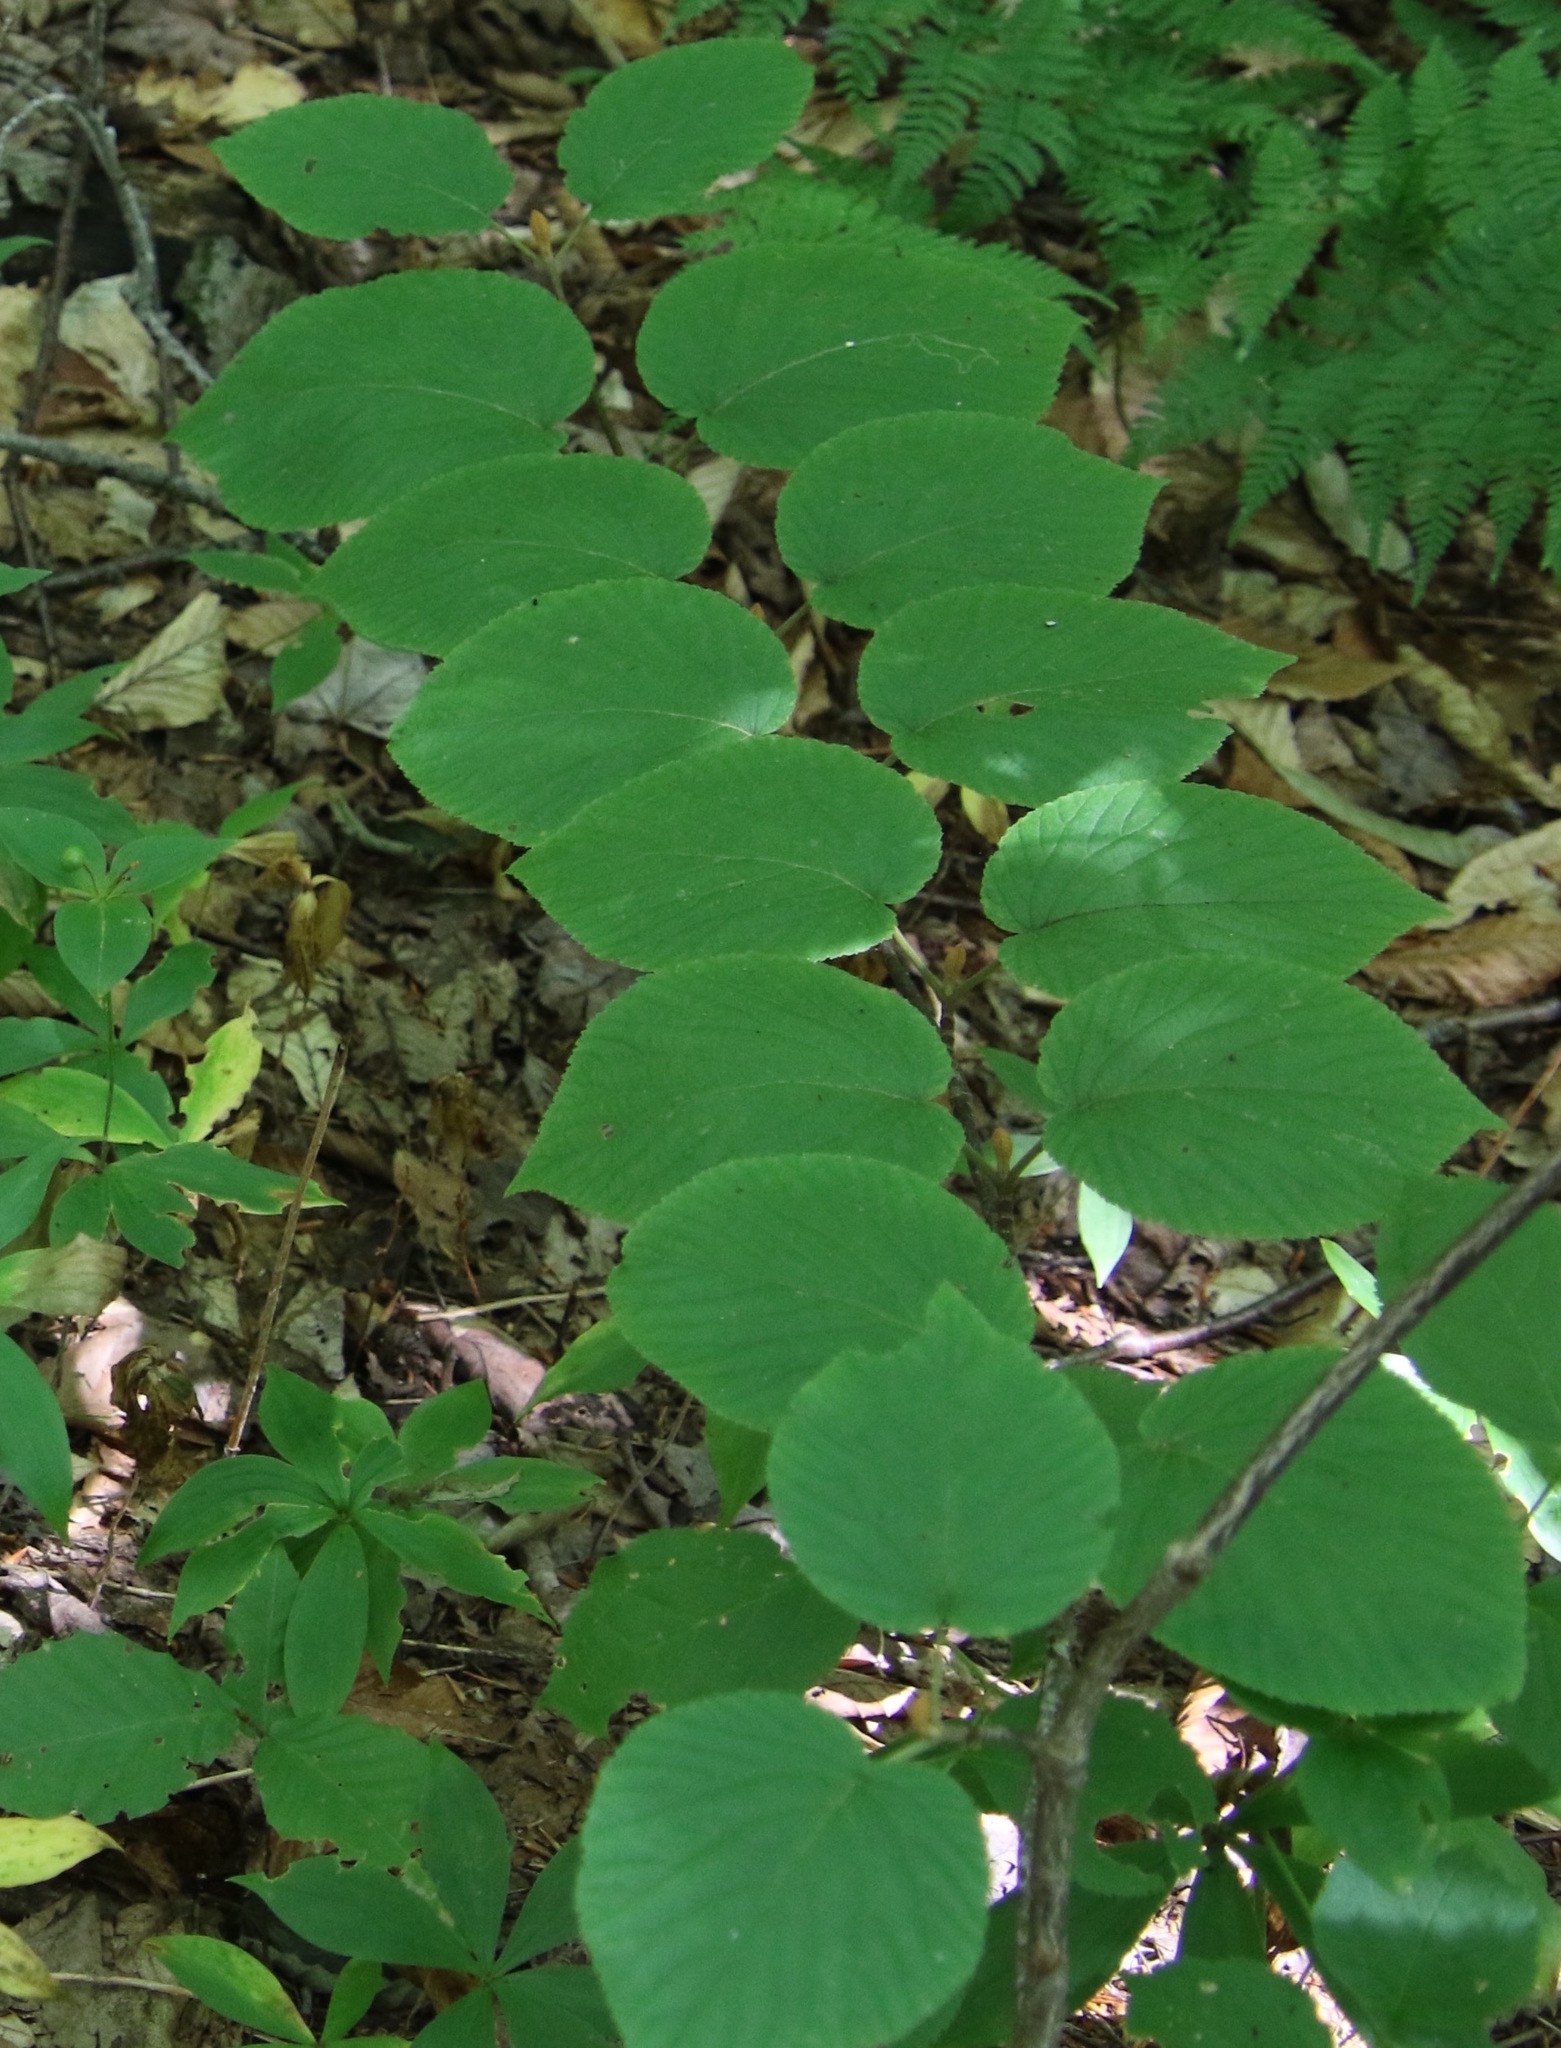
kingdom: Plantae
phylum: Tracheophyta
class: Magnoliopsida
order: Dipsacales
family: Viburnaceae
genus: Viburnum
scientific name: Viburnum lantanoides
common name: Hobblebush
